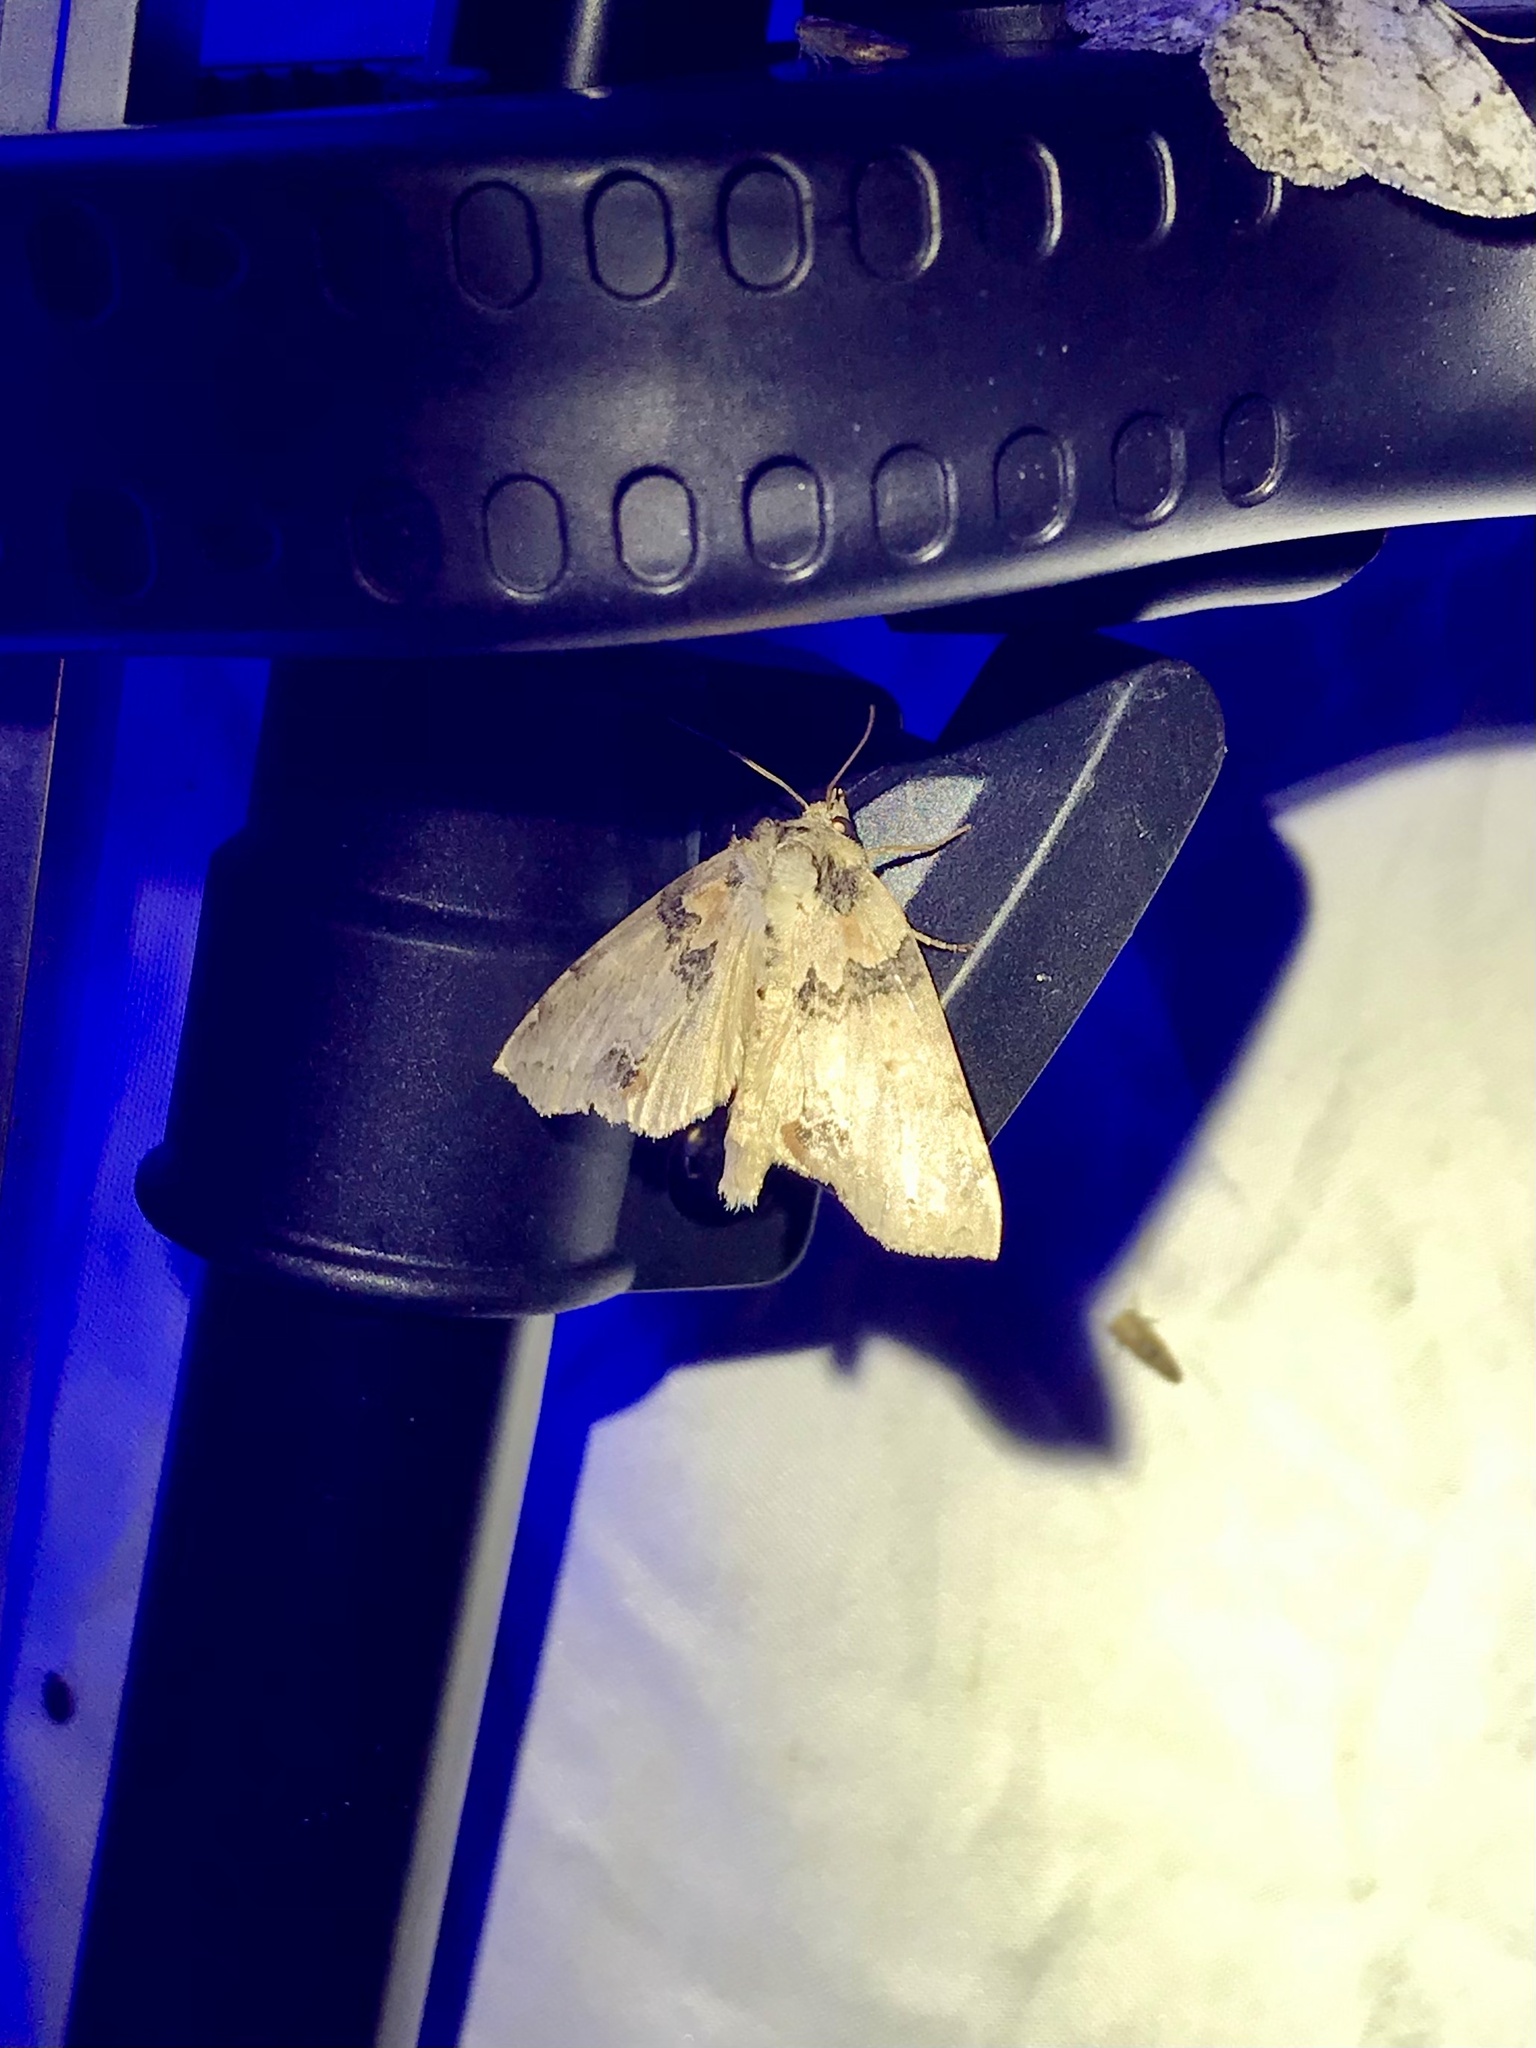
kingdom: Animalia
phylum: Arthropoda
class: Insecta
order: Lepidoptera
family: Drepanidae
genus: Pseudothyatira
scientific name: Pseudothyatira cymatophoroides
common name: Tufted thyatirid moth
